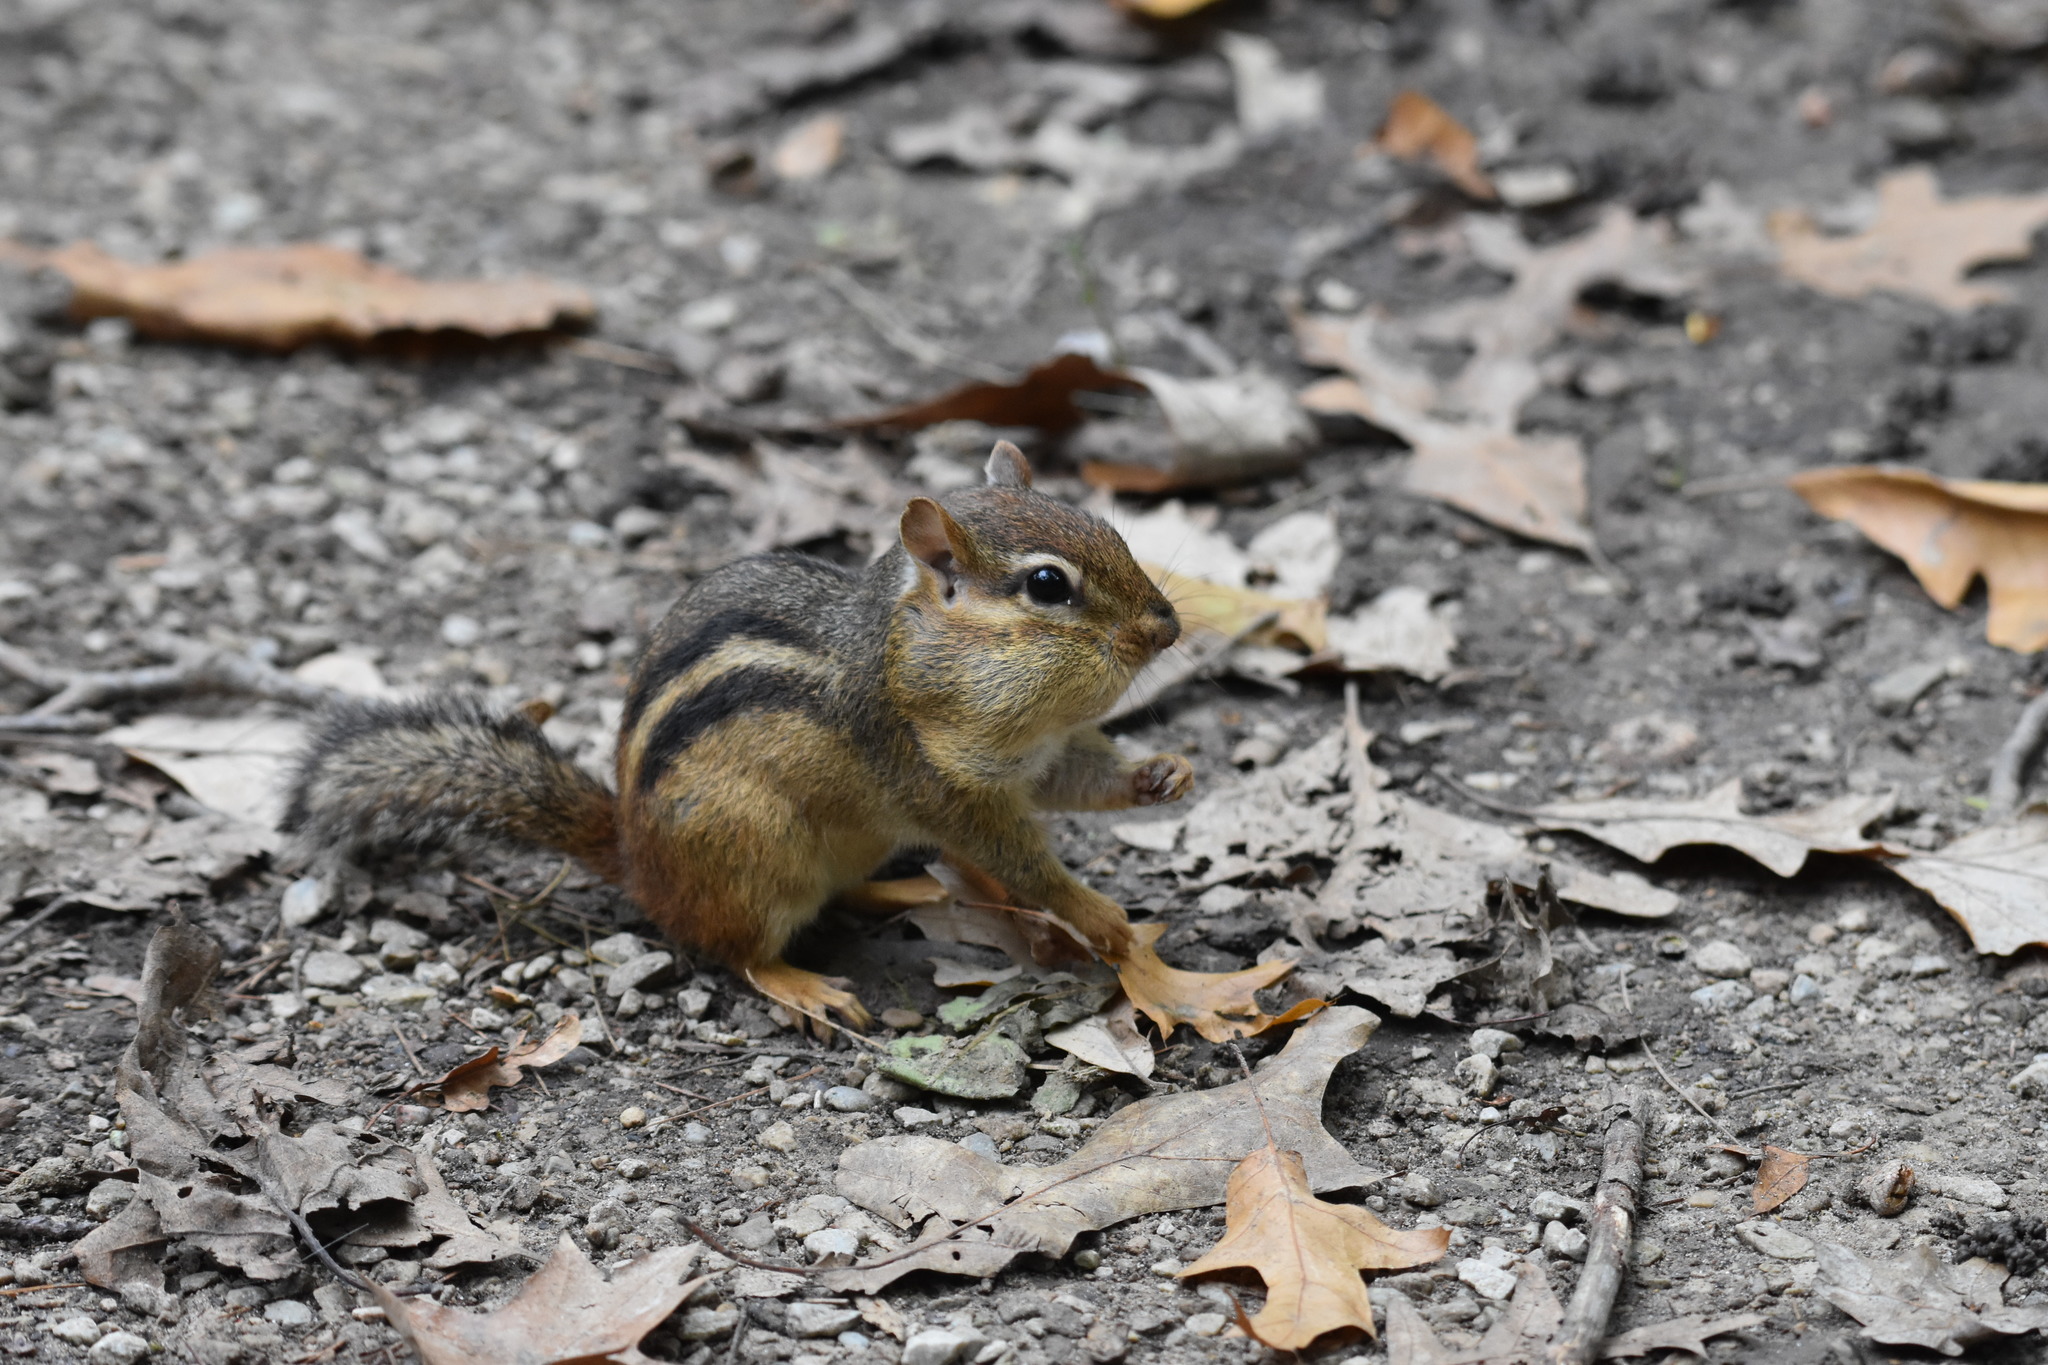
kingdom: Animalia
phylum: Chordata
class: Mammalia
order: Rodentia
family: Sciuridae
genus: Tamias
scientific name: Tamias striatus
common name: Eastern chipmunk
